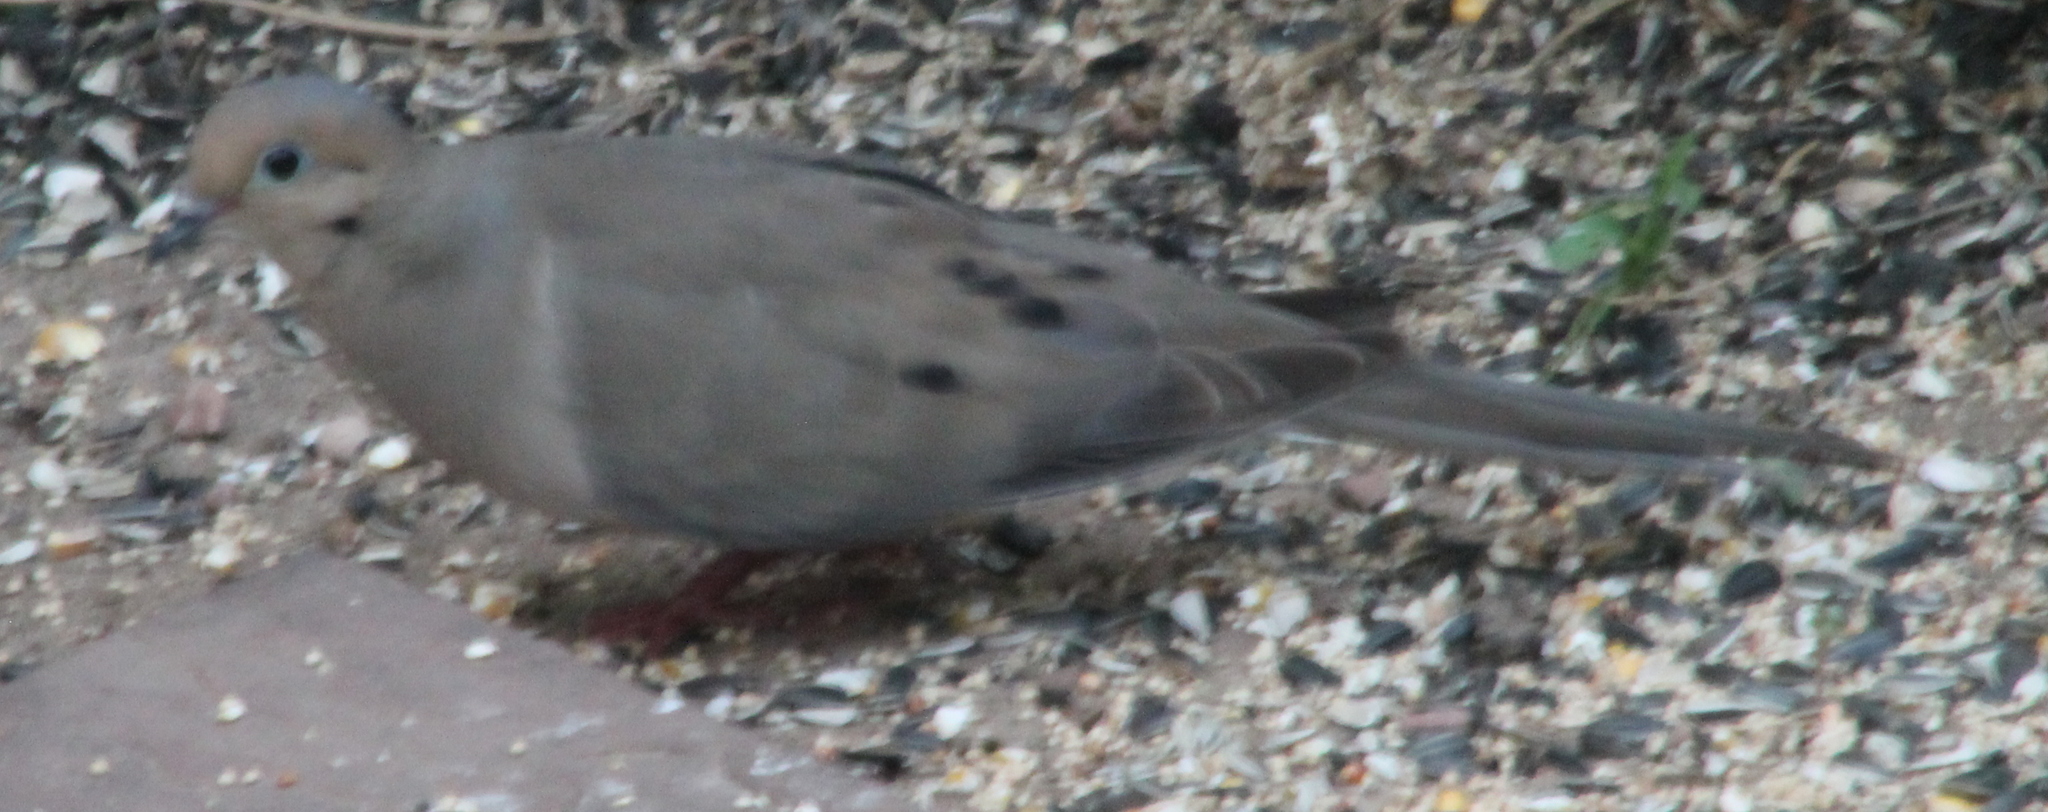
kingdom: Animalia
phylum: Chordata
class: Aves
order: Columbiformes
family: Columbidae
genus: Zenaida
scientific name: Zenaida macroura
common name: Mourning dove
